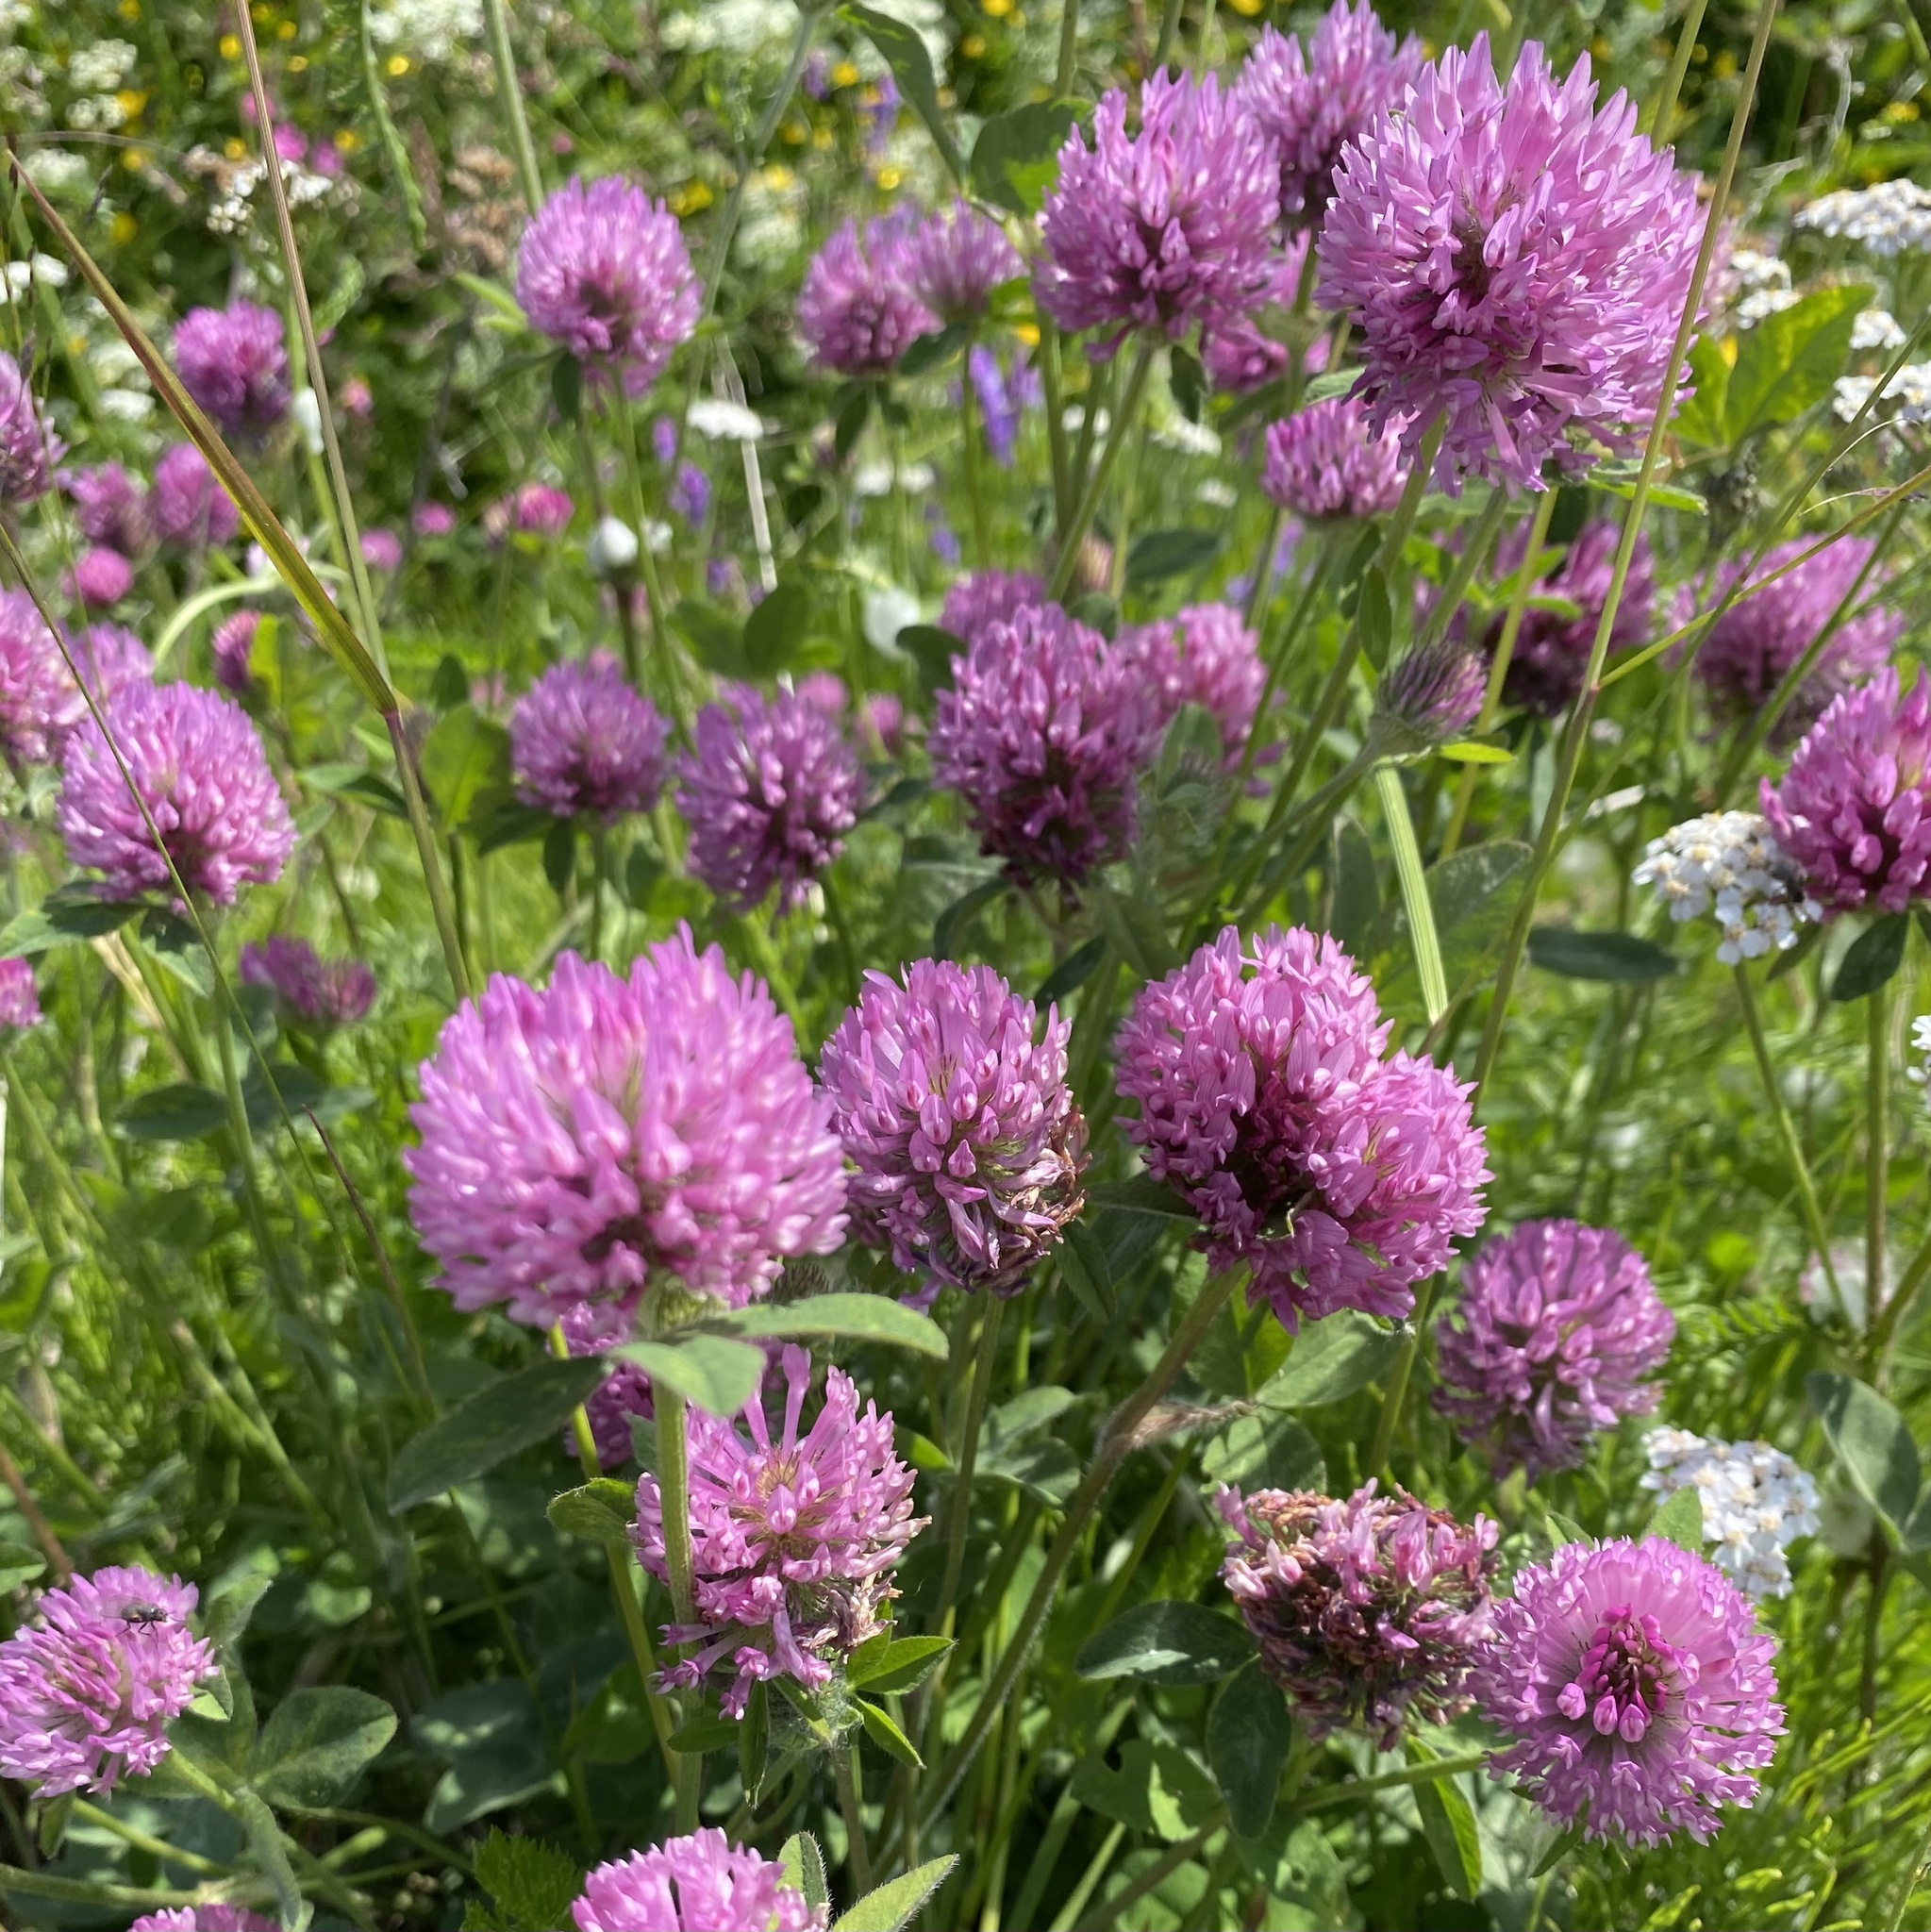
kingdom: Plantae
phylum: Tracheophyta
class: Magnoliopsida
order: Fabales
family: Fabaceae
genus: Trifolium
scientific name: Trifolium pratense
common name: Red clover
